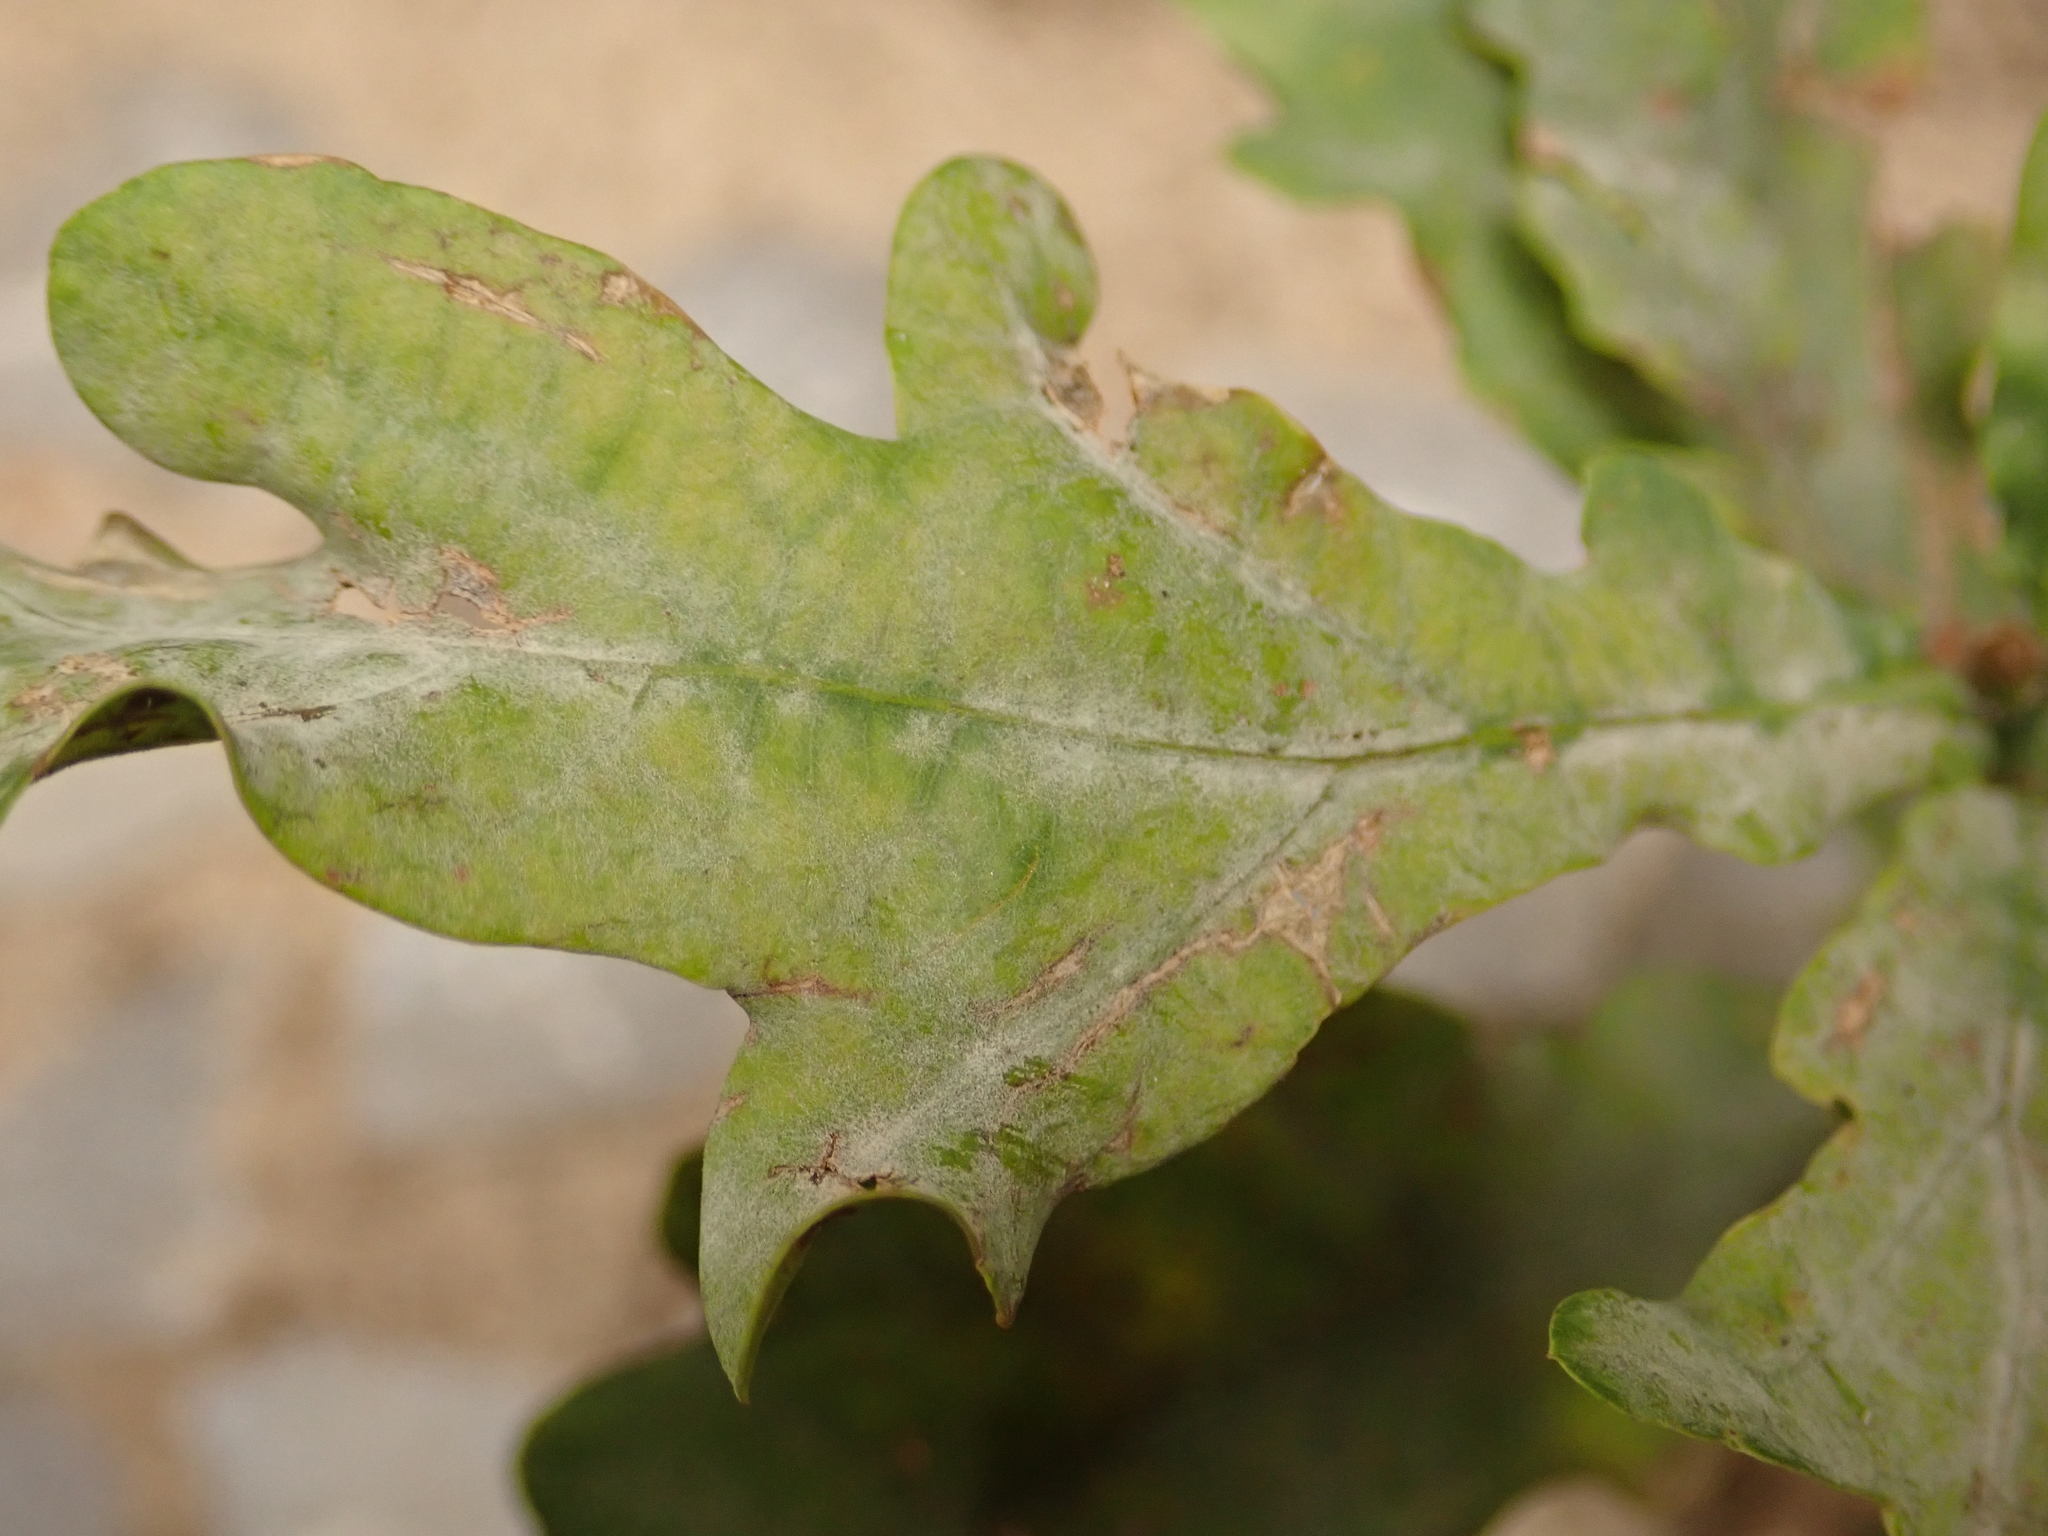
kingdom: Fungi
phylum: Ascomycota
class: Leotiomycetes
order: Helotiales
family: Erysiphaceae
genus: Erysiphe
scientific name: Erysiphe
